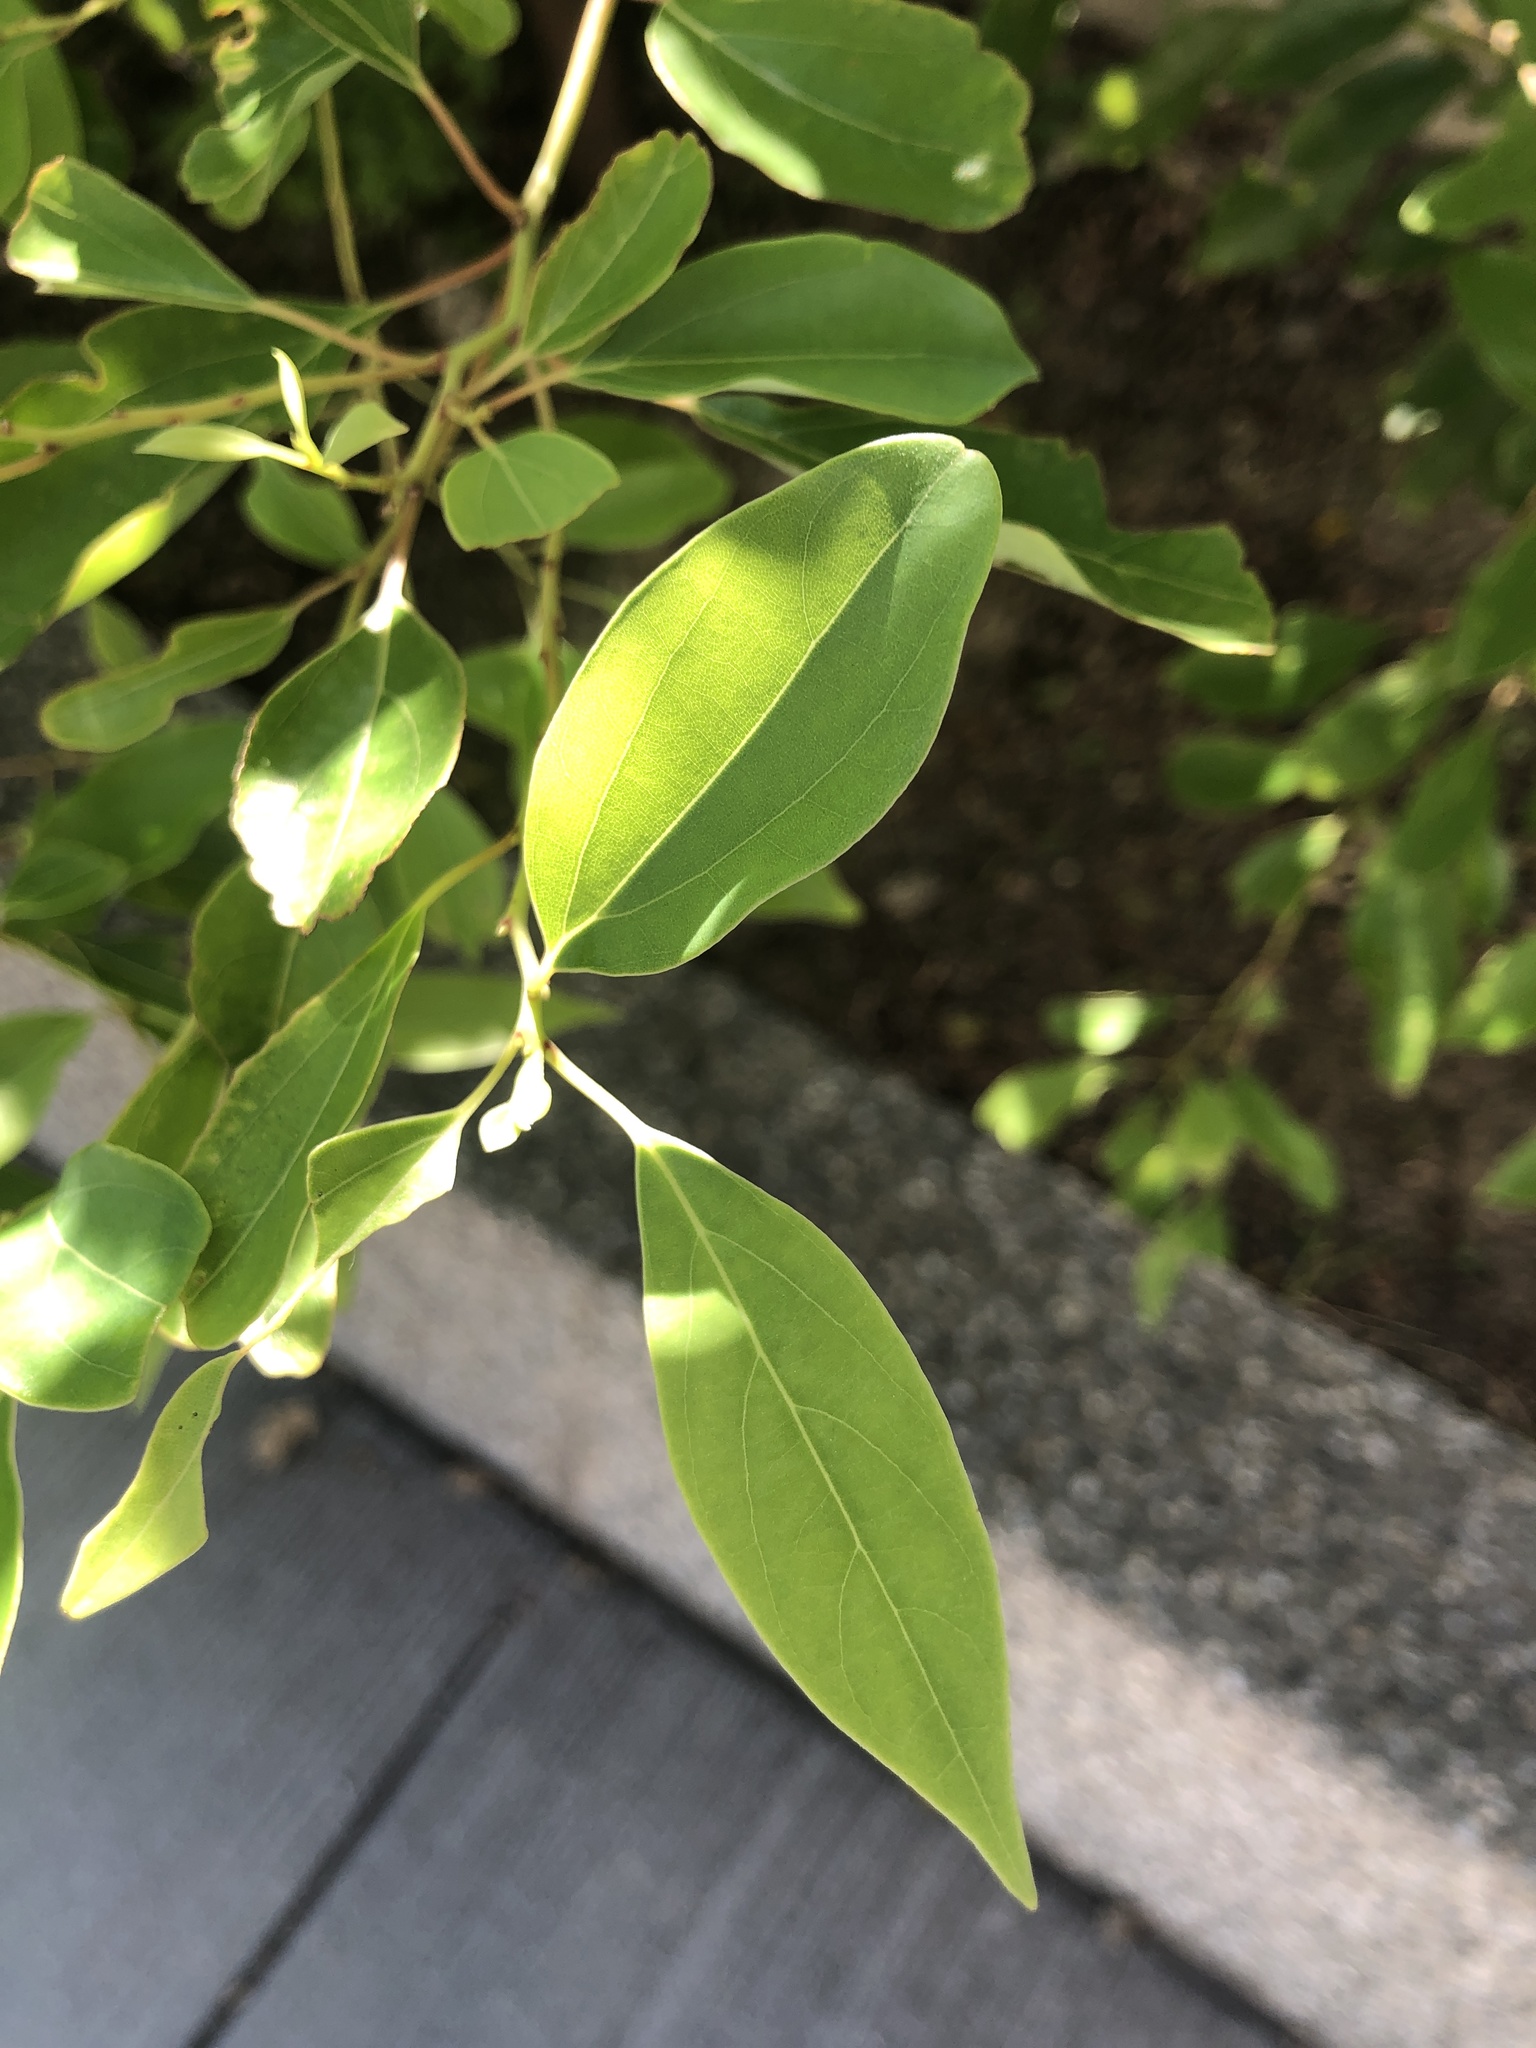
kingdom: Plantae
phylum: Tracheophyta
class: Magnoliopsida
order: Laurales
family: Lauraceae
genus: Cinnamomum
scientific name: Cinnamomum camphora
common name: Camphortree
